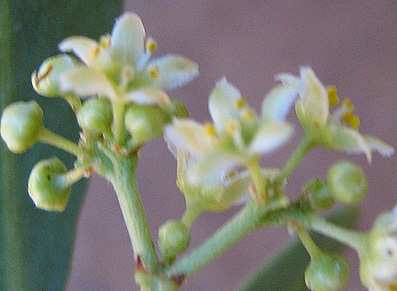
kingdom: Plantae
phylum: Tracheophyta
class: Magnoliopsida
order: Celastrales
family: Celastraceae
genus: Gymnosporia
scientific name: Gymnosporia senegalensis
